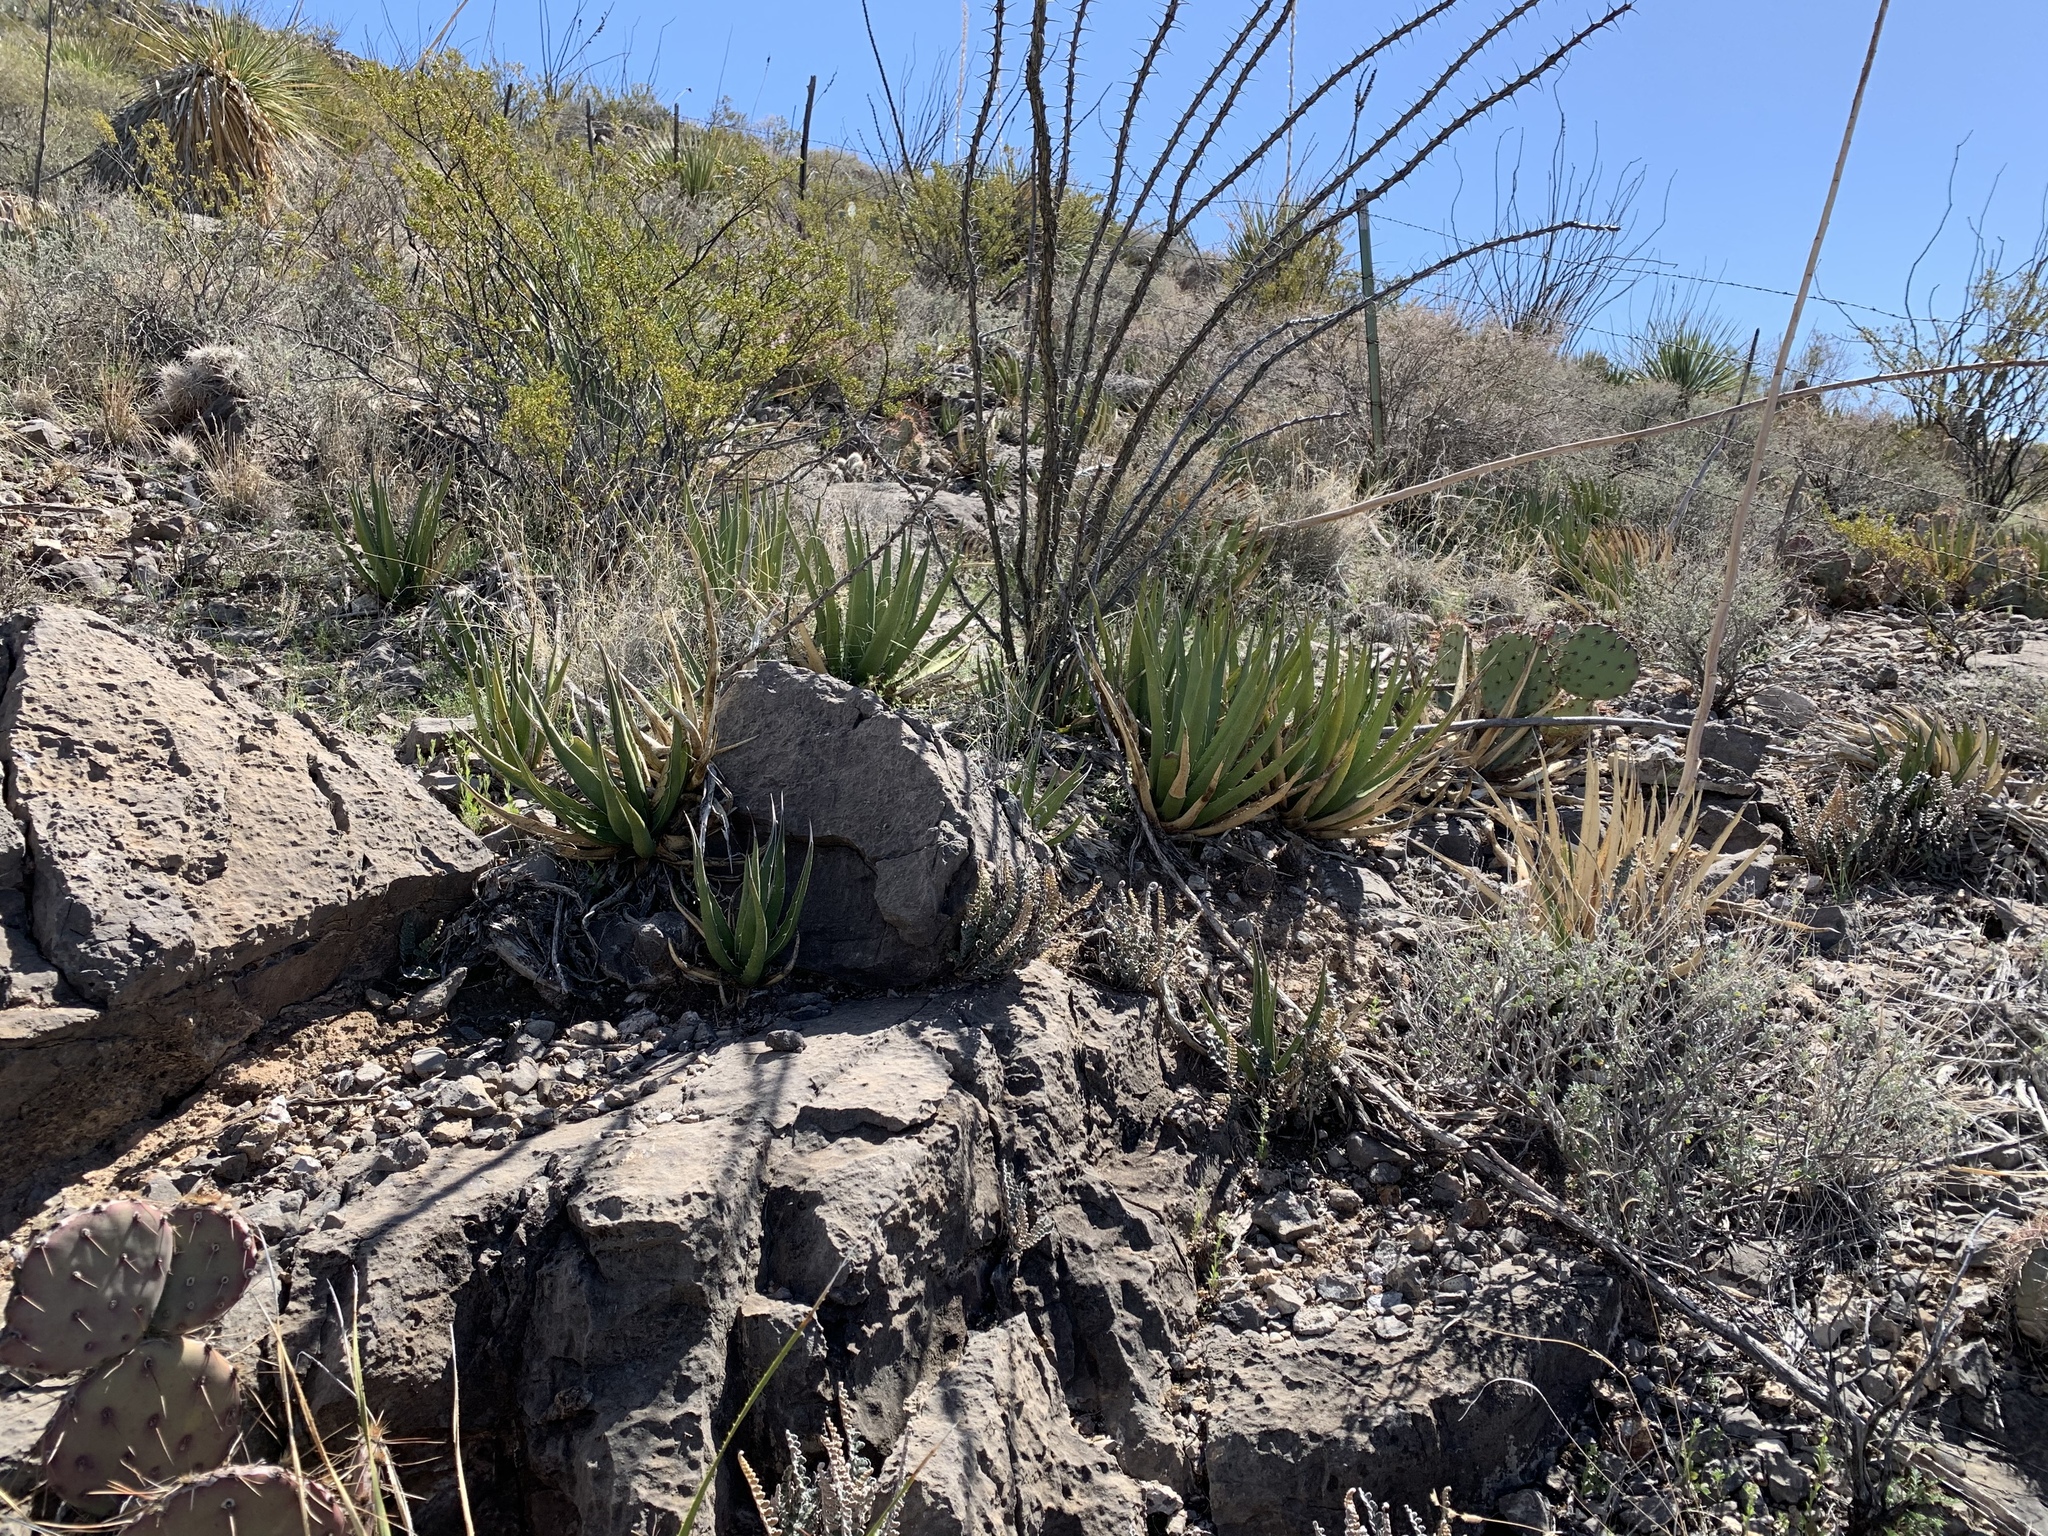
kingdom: Plantae
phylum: Tracheophyta
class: Liliopsida
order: Asparagales
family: Asparagaceae
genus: Agave
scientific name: Agave lechuguilla
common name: Lecheguilla agave
